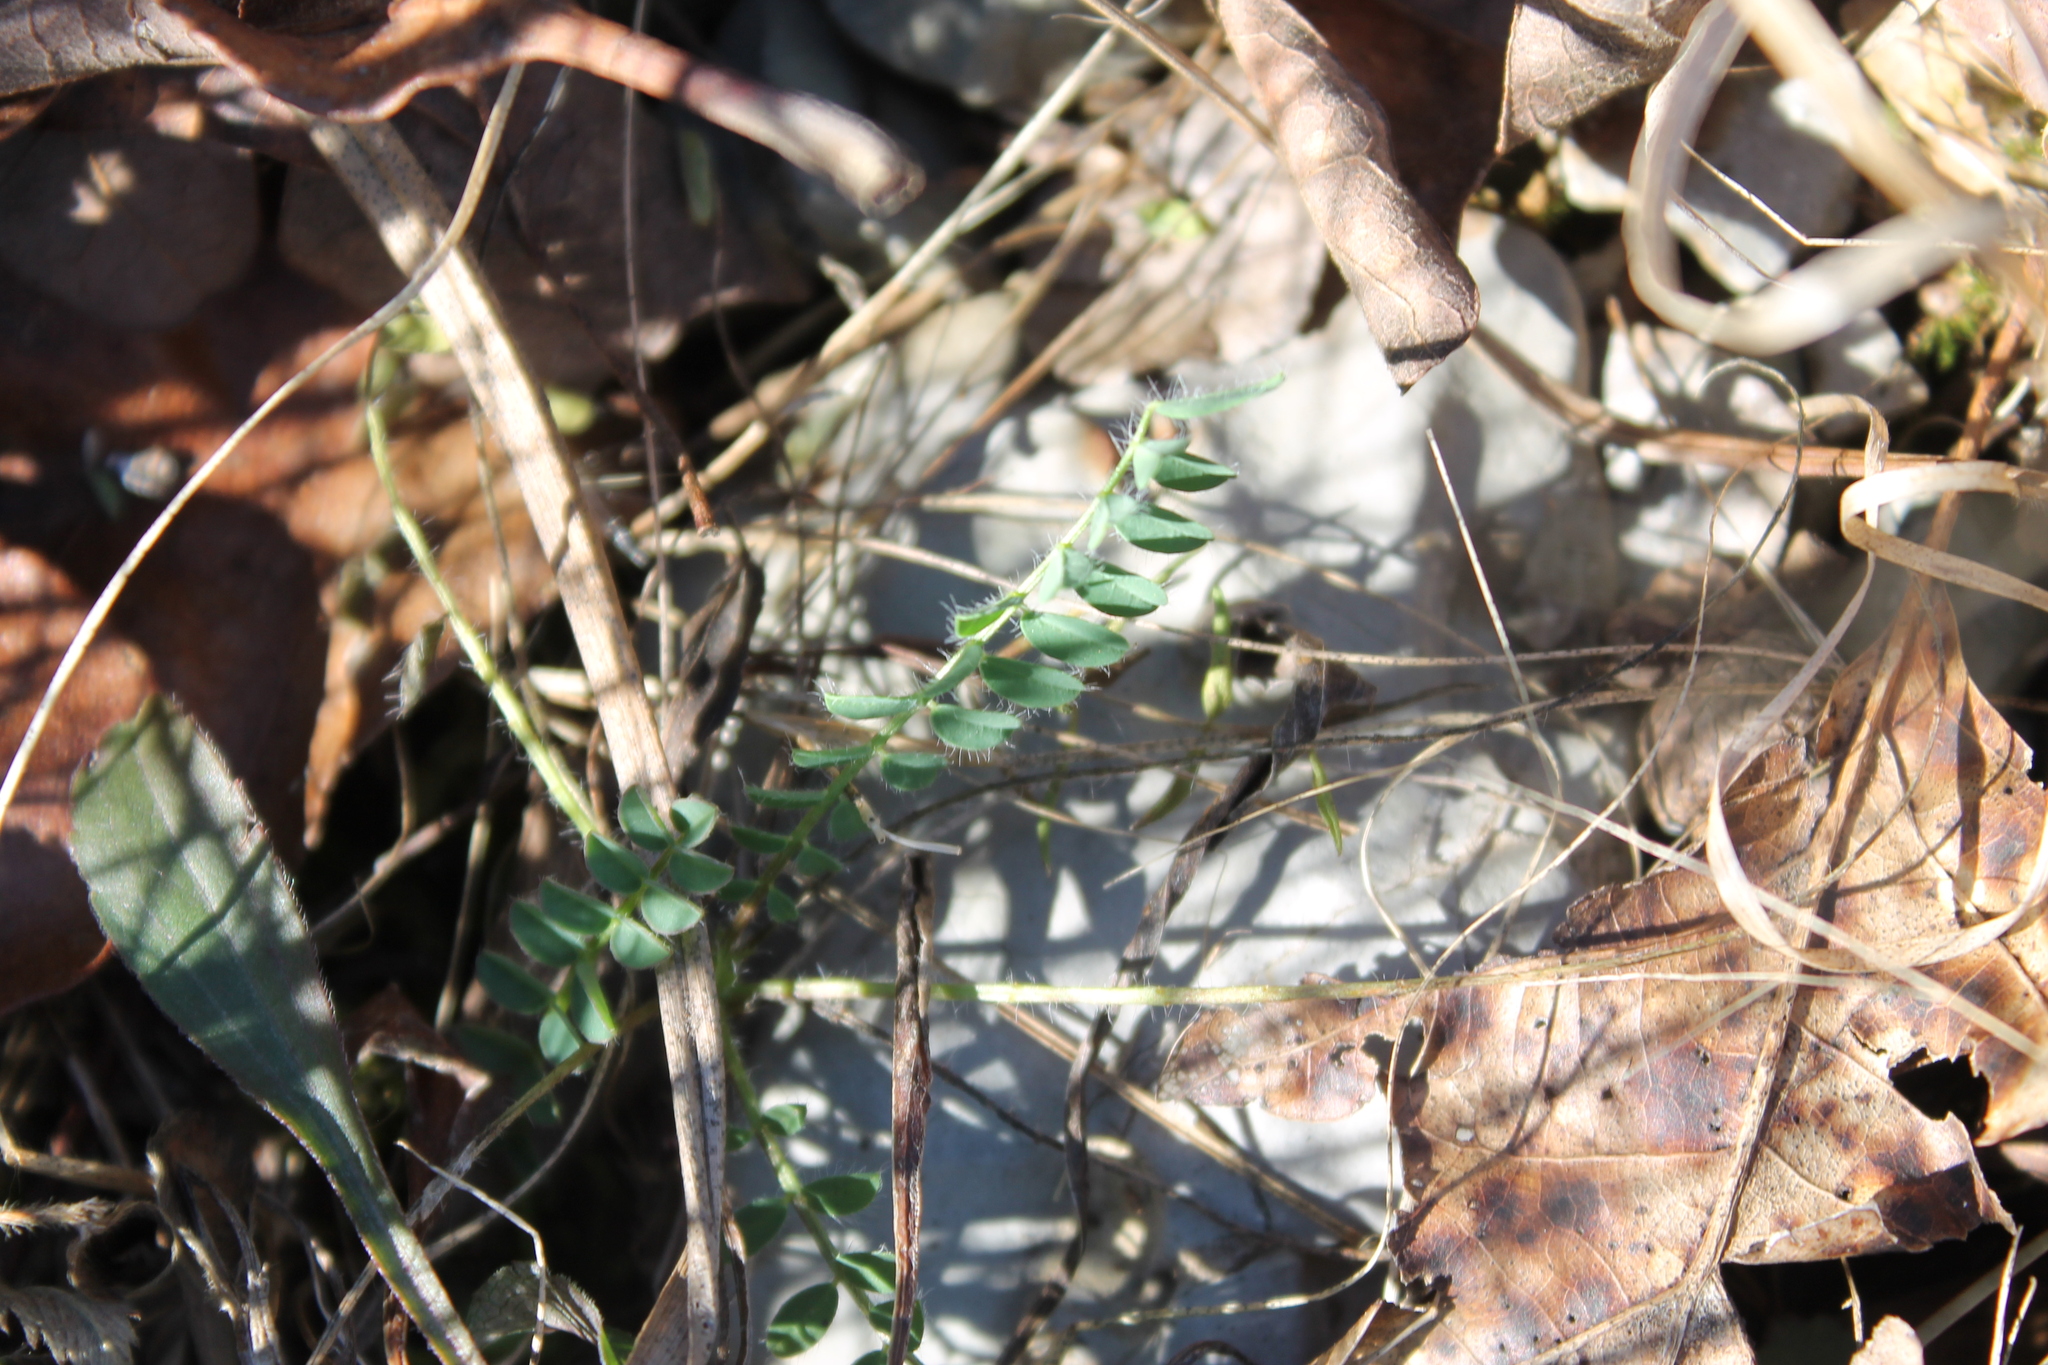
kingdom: Plantae
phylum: Tracheophyta
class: Magnoliopsida
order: Fabales
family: Fabaceae
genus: Astragalus
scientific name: Astragalus tennesseensis
